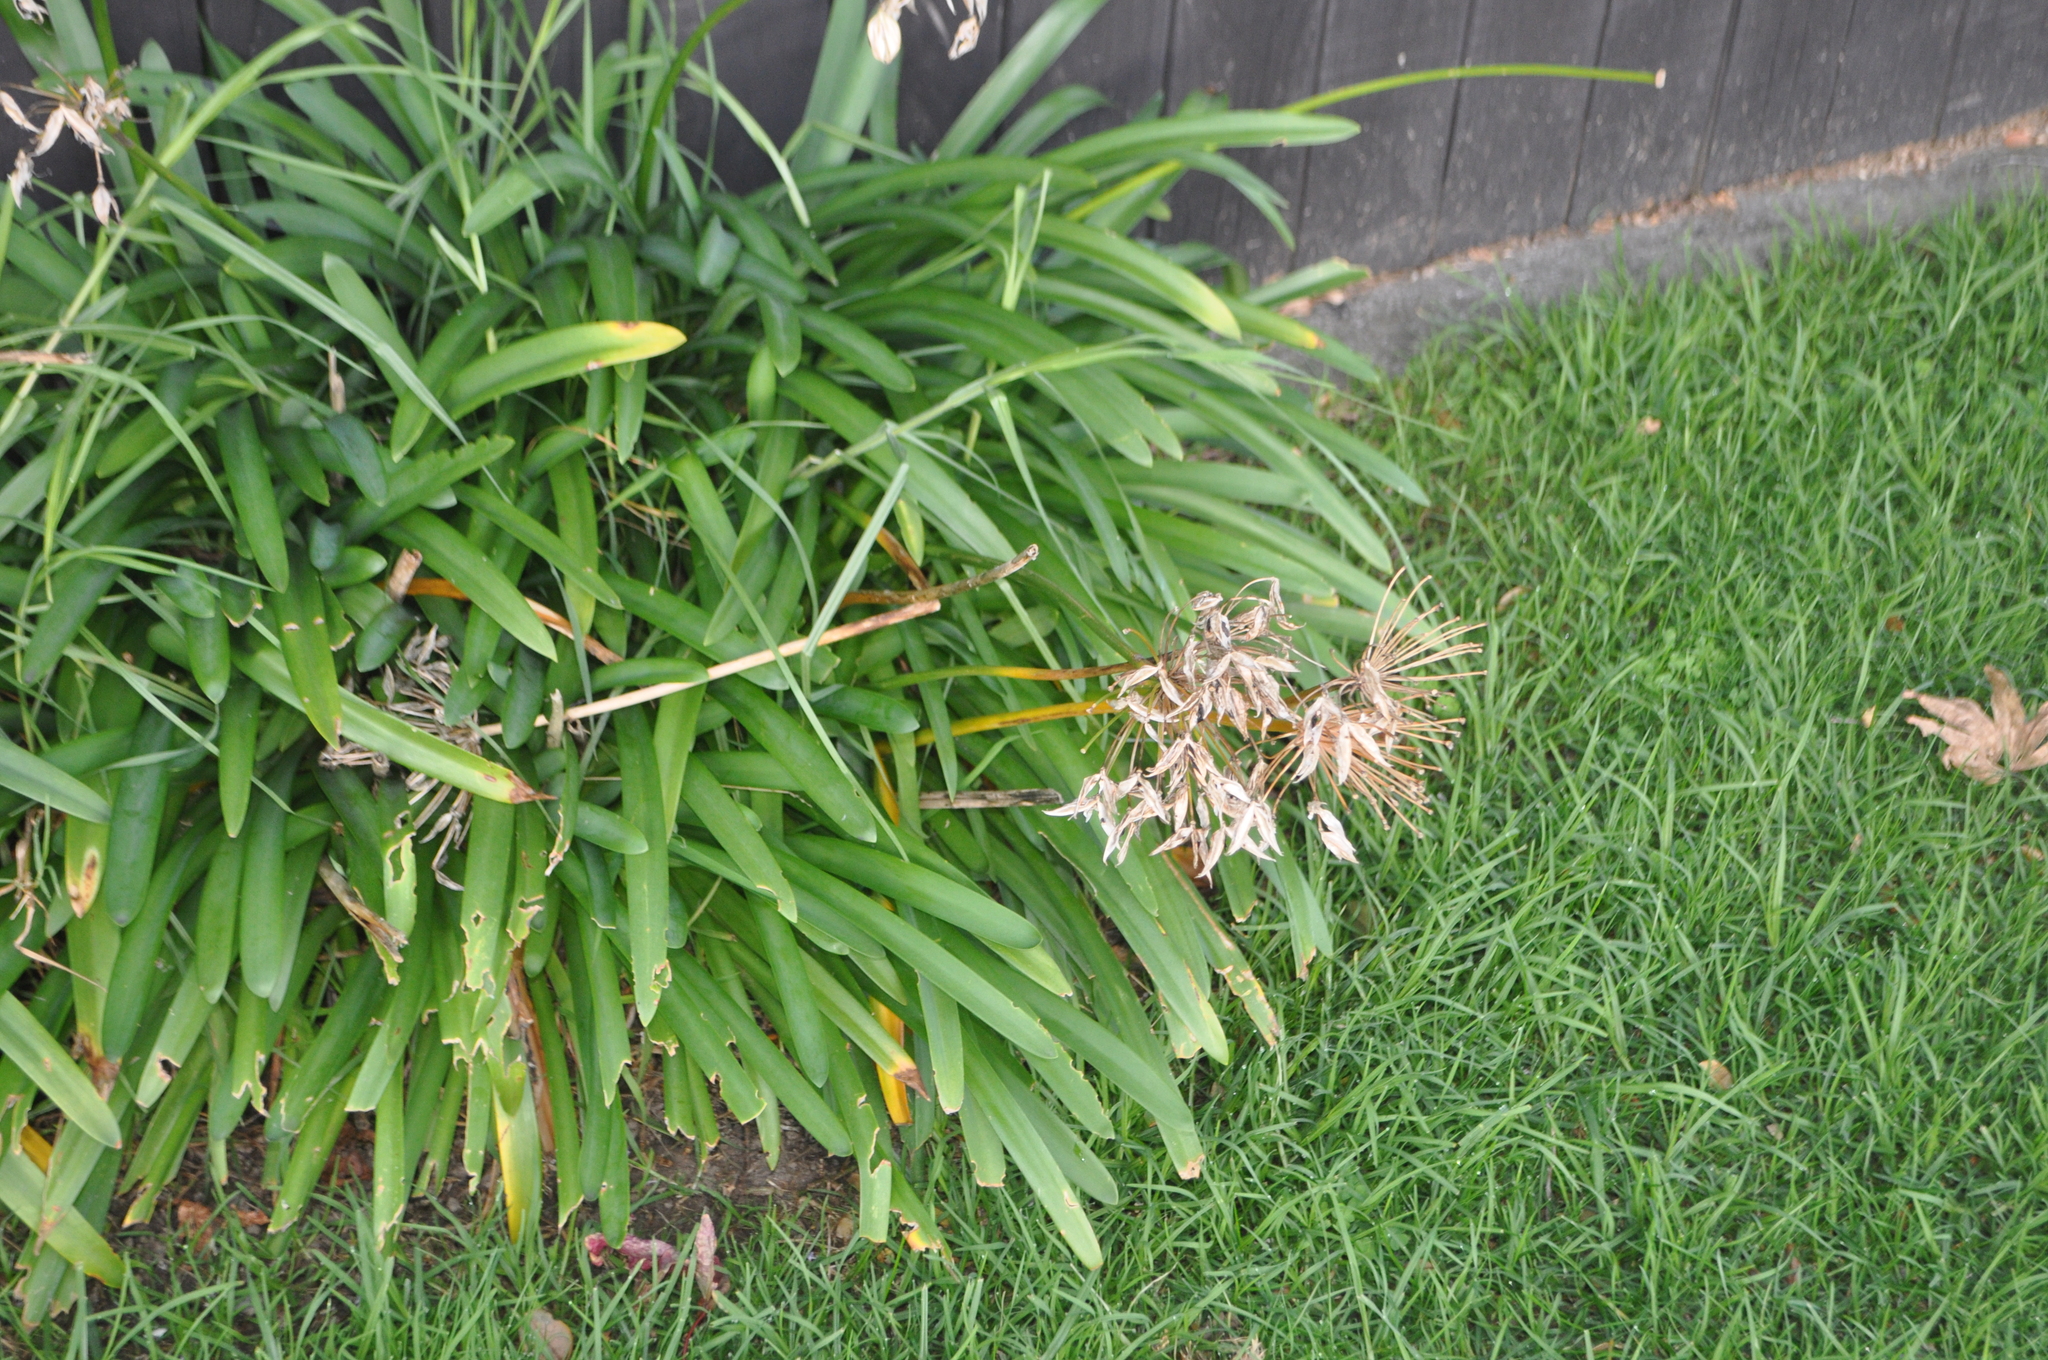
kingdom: Plantae
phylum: Tracheophyta
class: Liliopsida
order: Asparagales
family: Amaryllidaceae
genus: Agapanthus
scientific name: Agapanthus praecox
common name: African-lily
